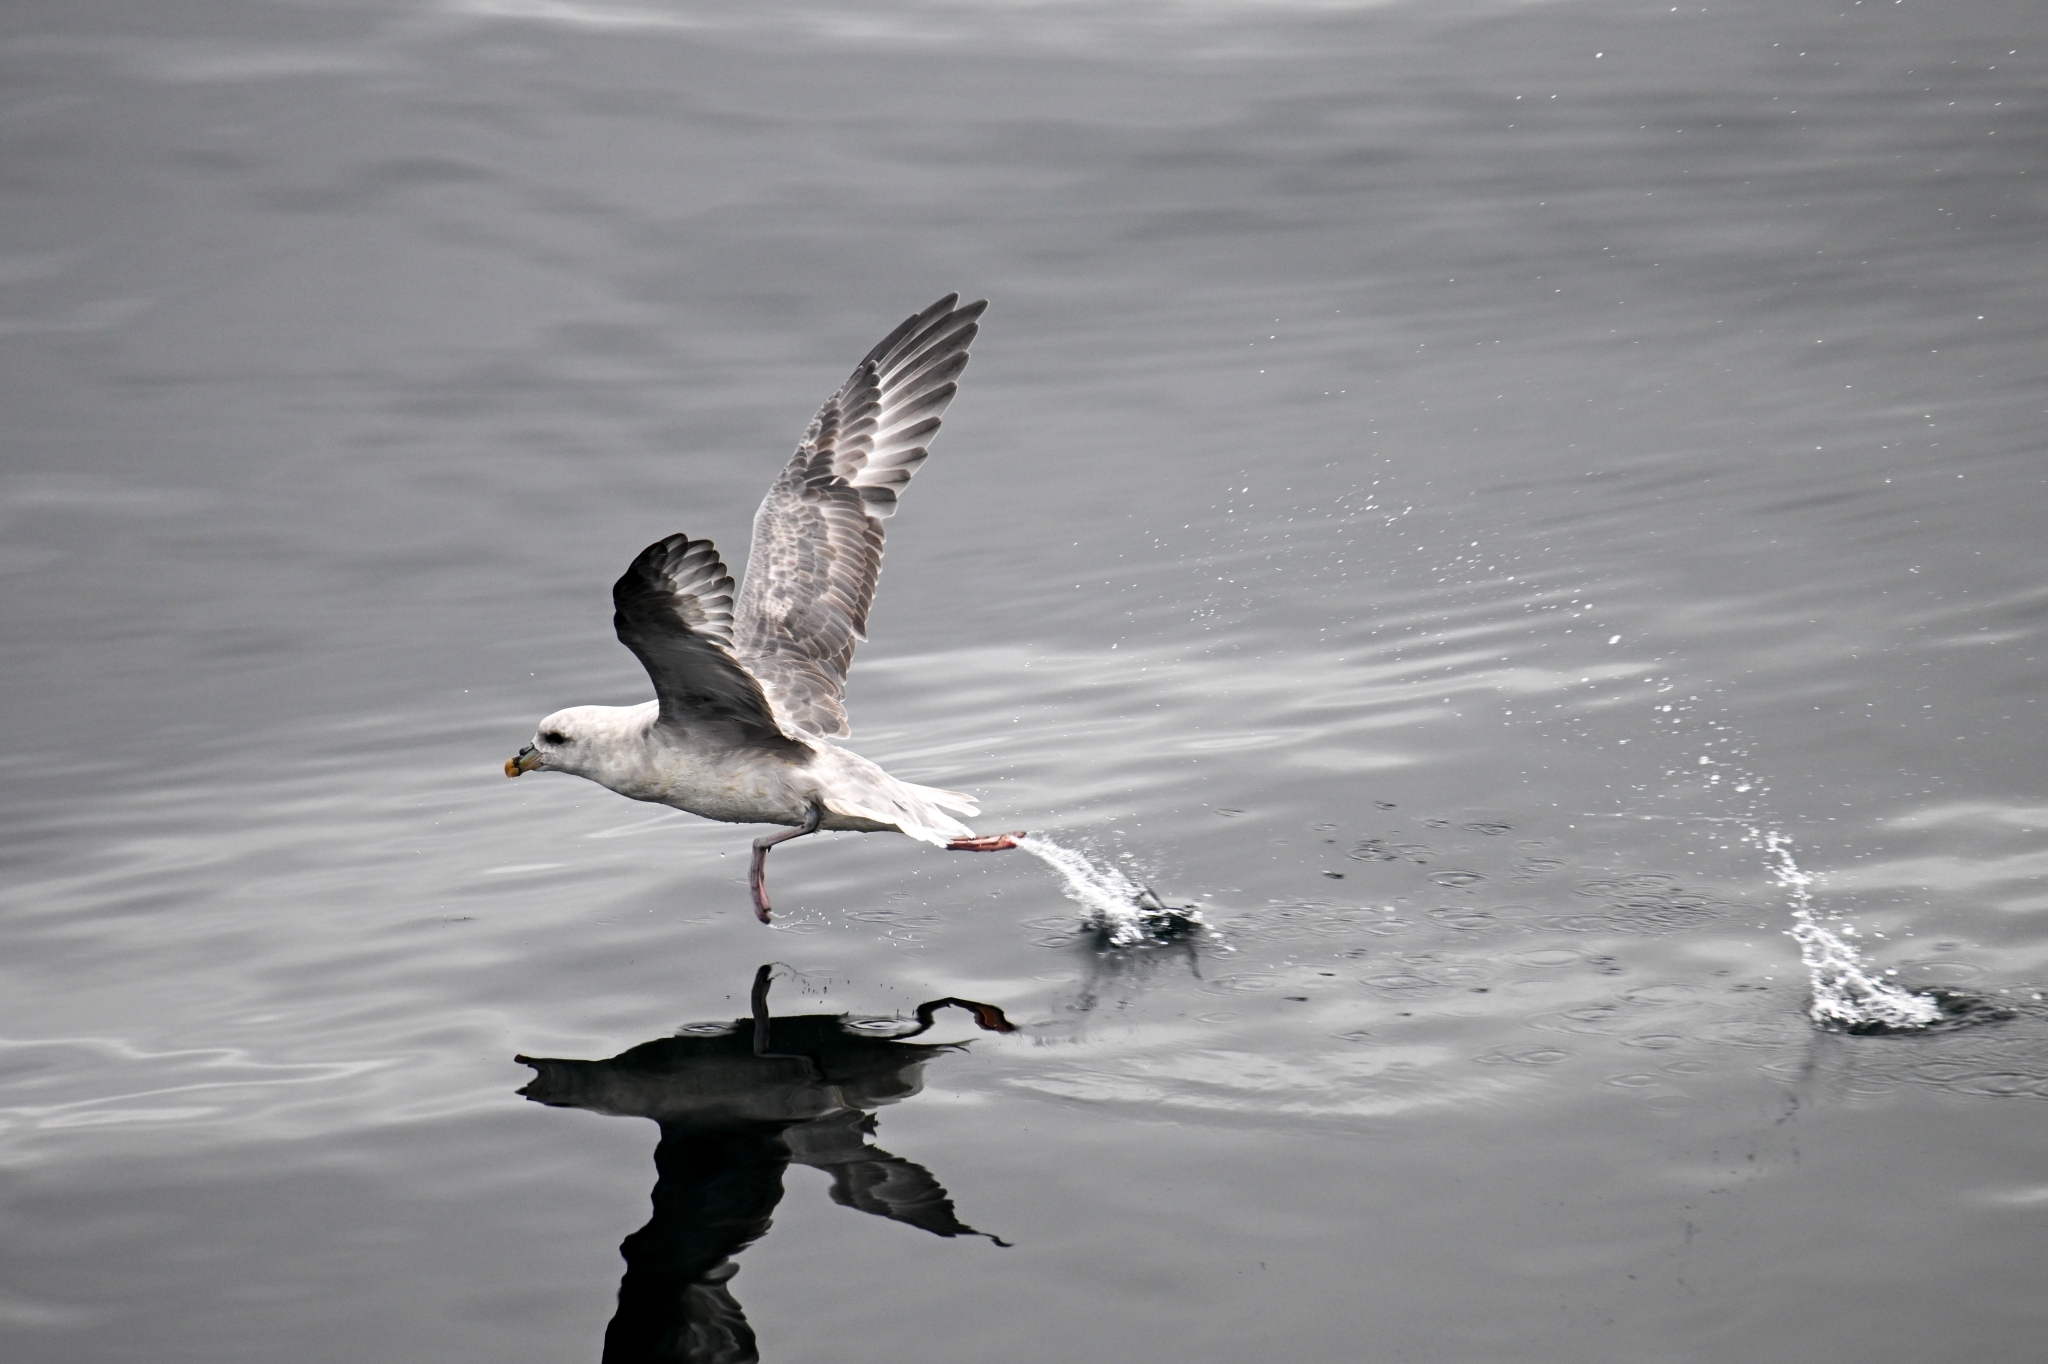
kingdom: Animalia
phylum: Chordata
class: Aves
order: Procellariiformes
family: Procellariidae
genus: Fulmarus
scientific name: Fulmarus glacialis
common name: Northern fulmar
